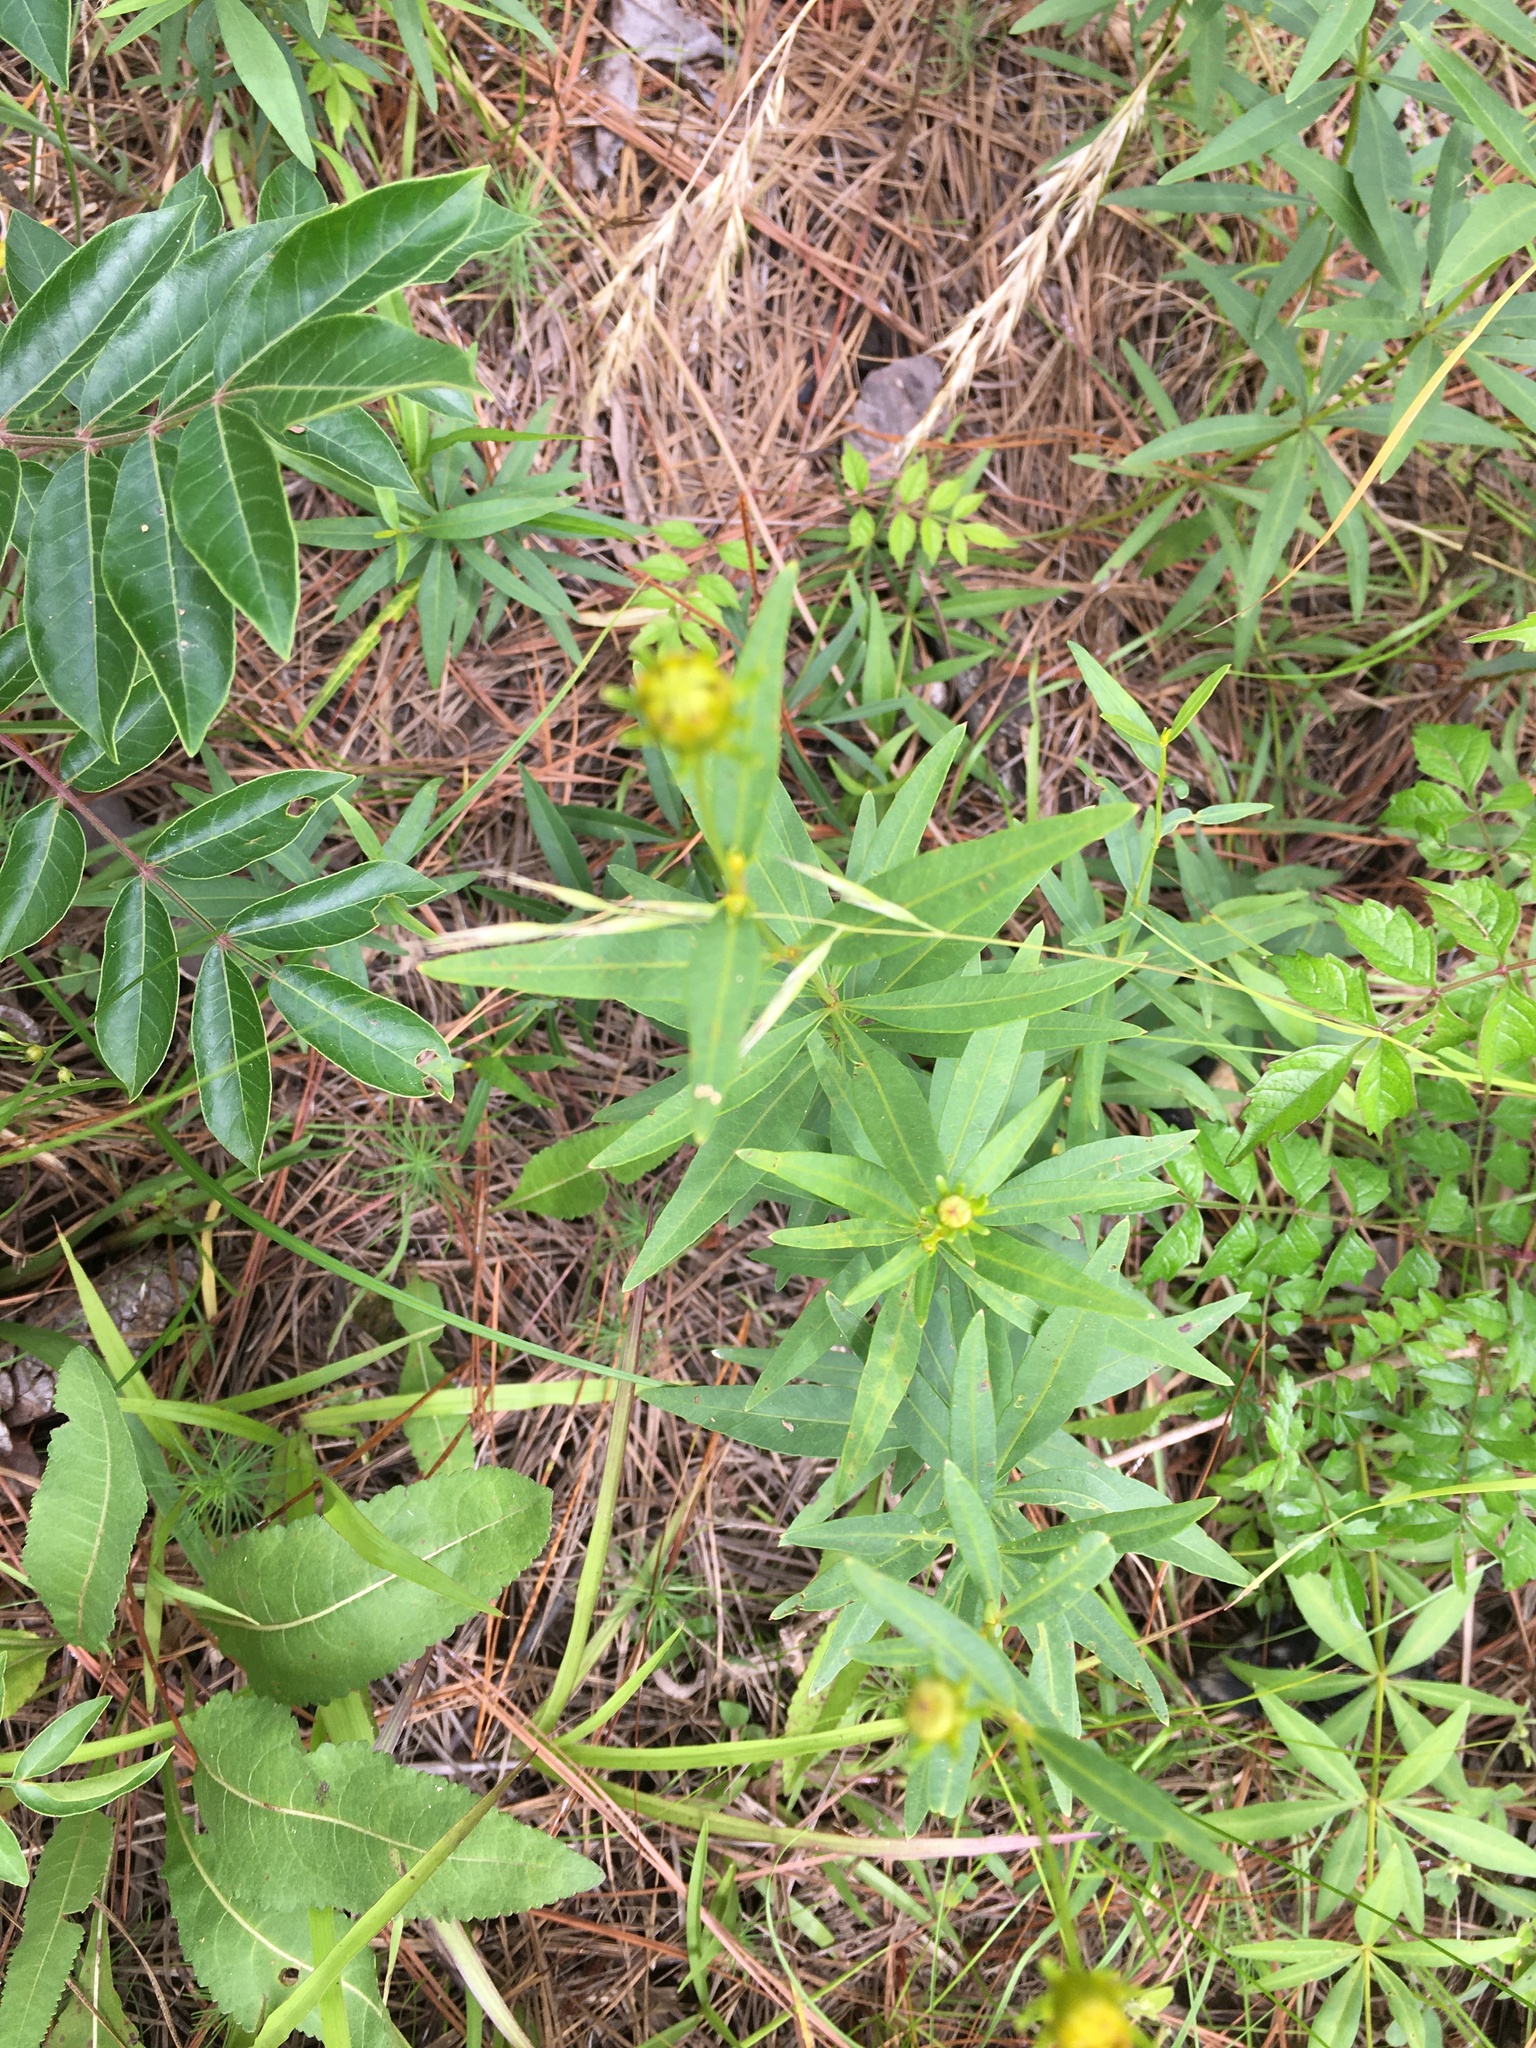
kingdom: Plantae
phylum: Tracheophyta
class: Magnoliopsida
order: Asterales
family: Asteraceae
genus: Coreopsis
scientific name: Coreopsis major
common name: Forest tickseed
